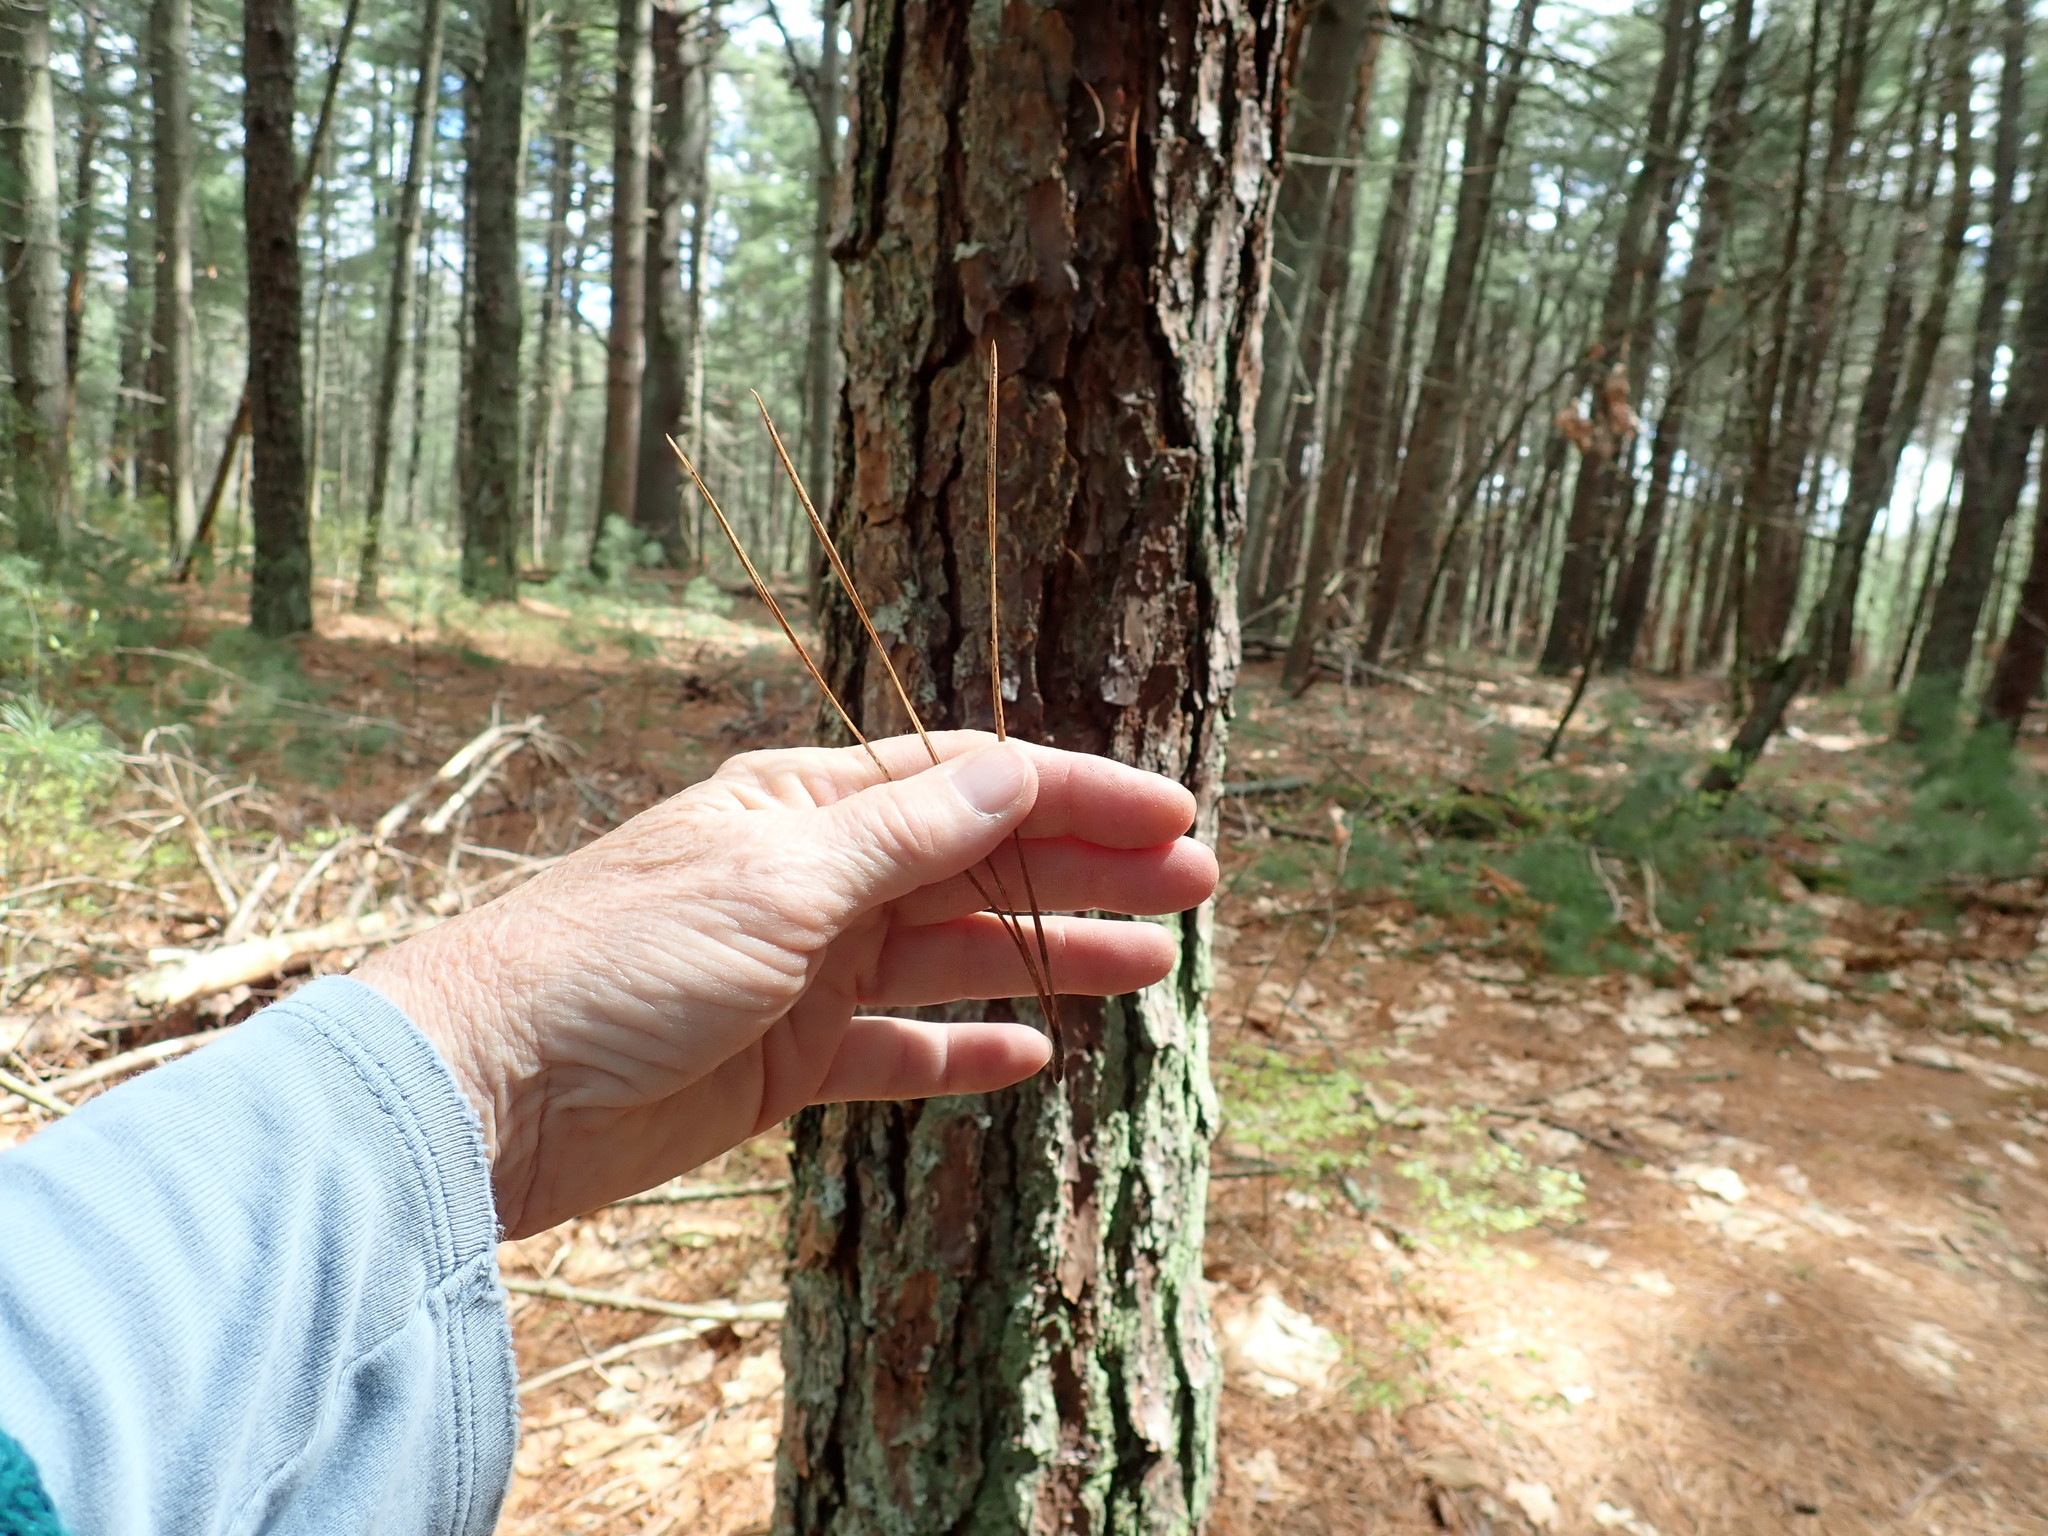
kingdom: Plantae
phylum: Tracheophyta
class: Pinopsida
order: Pinales
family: Pinaceae
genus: Pinus
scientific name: Pinus rigida
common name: Pitch pine
